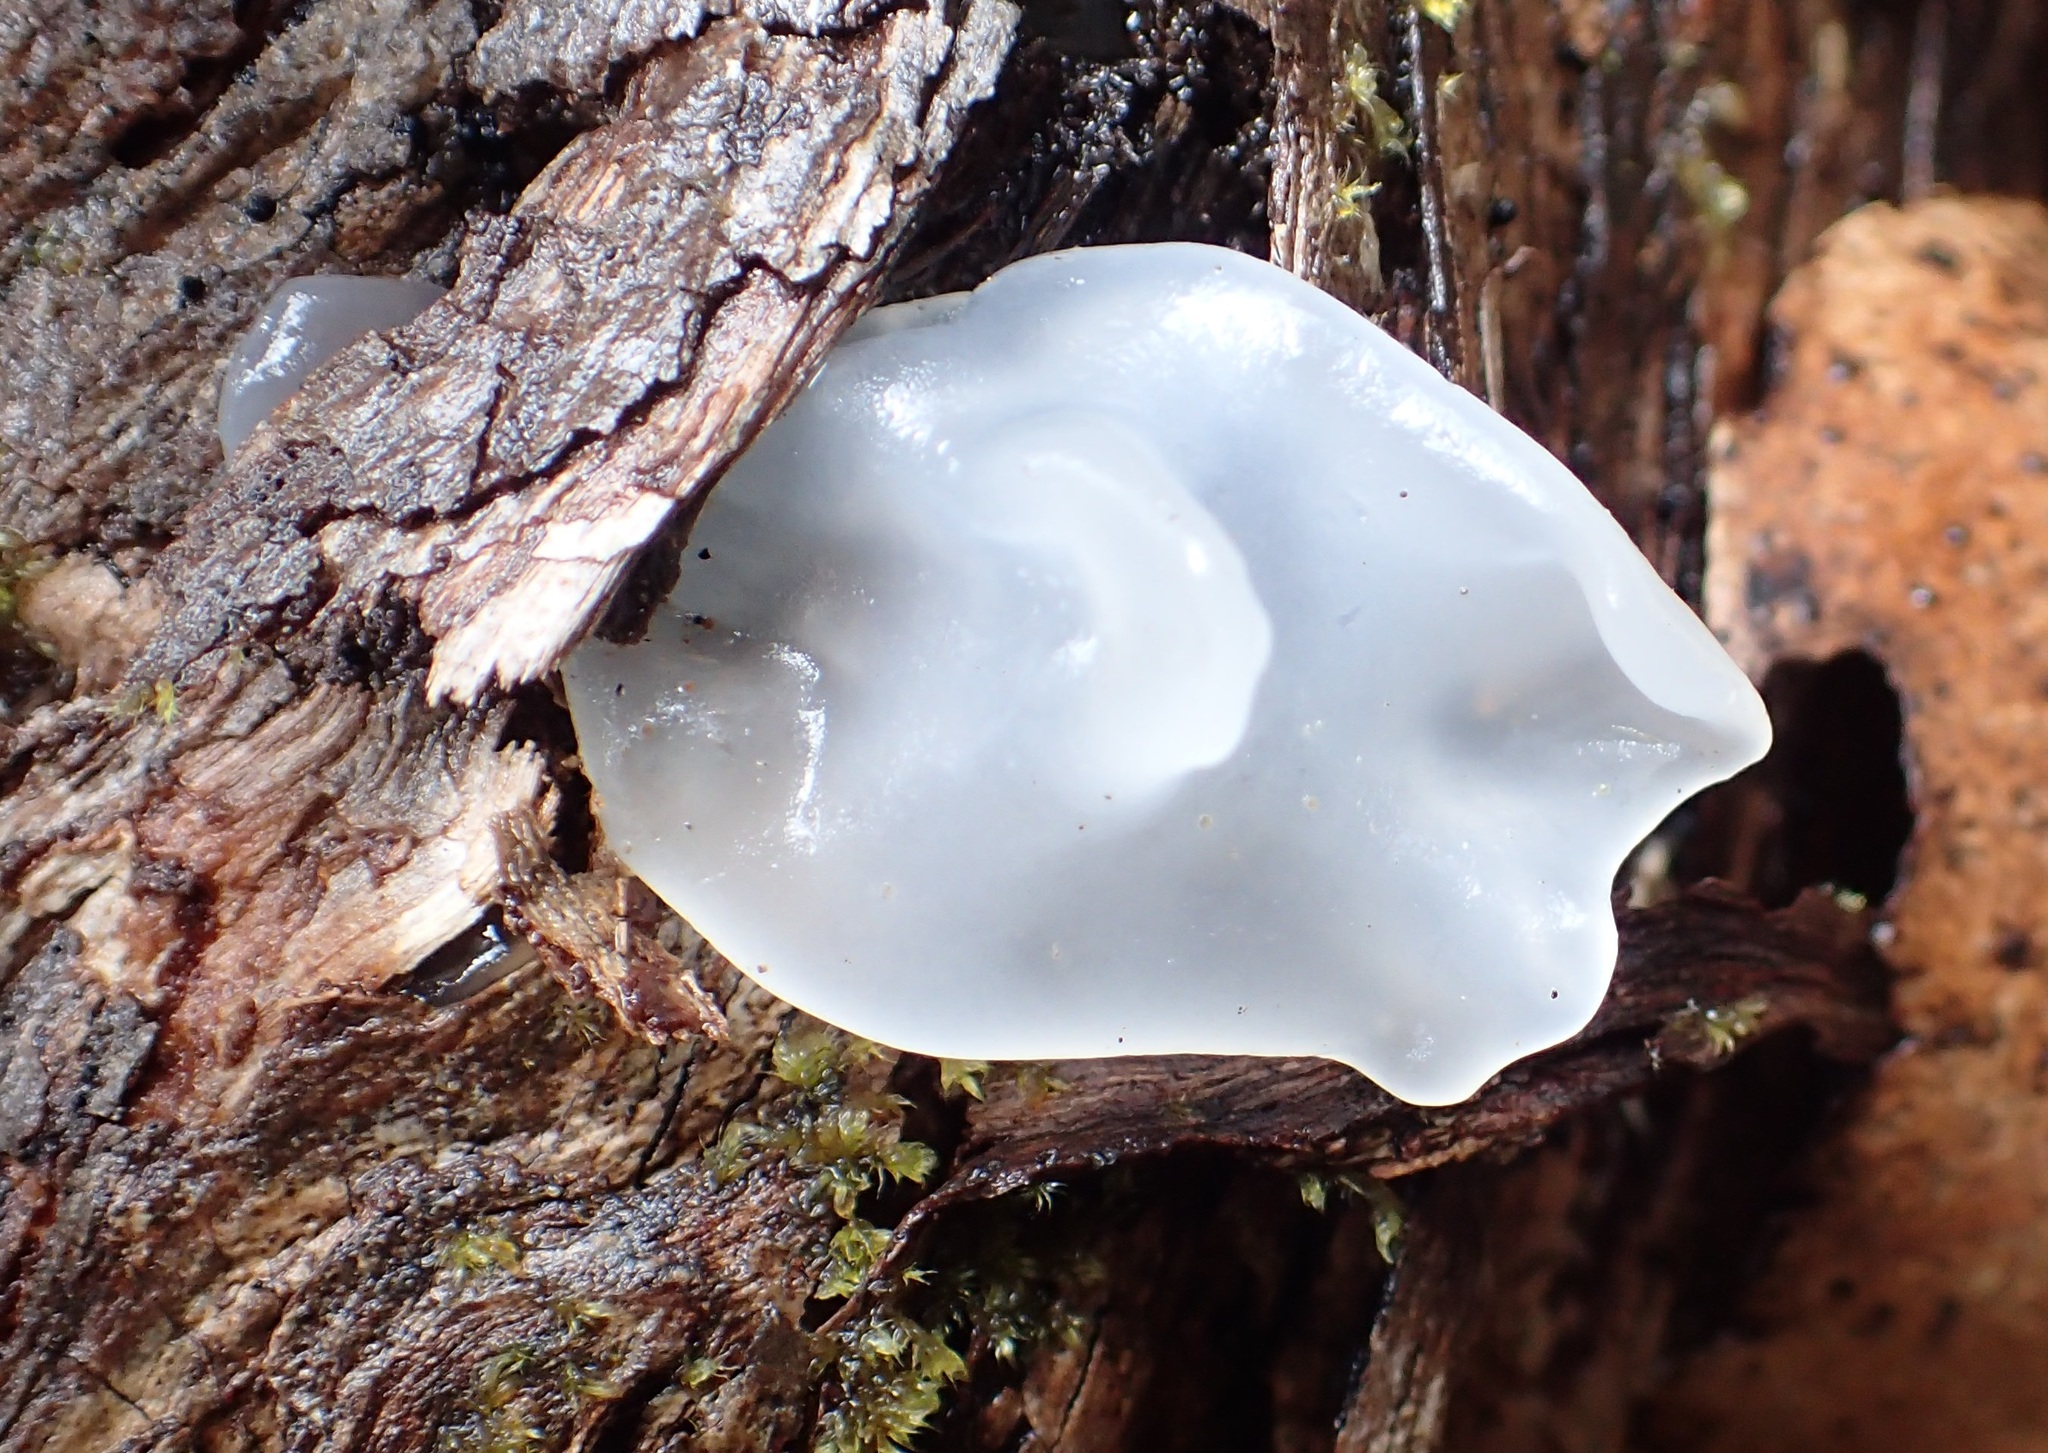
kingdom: Fungi
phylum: Basidiomycota
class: Tremellomycetes
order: Tremellales
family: Tremellaceae
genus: Tremella
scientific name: Tremella fuciformis
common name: Snow fungus
